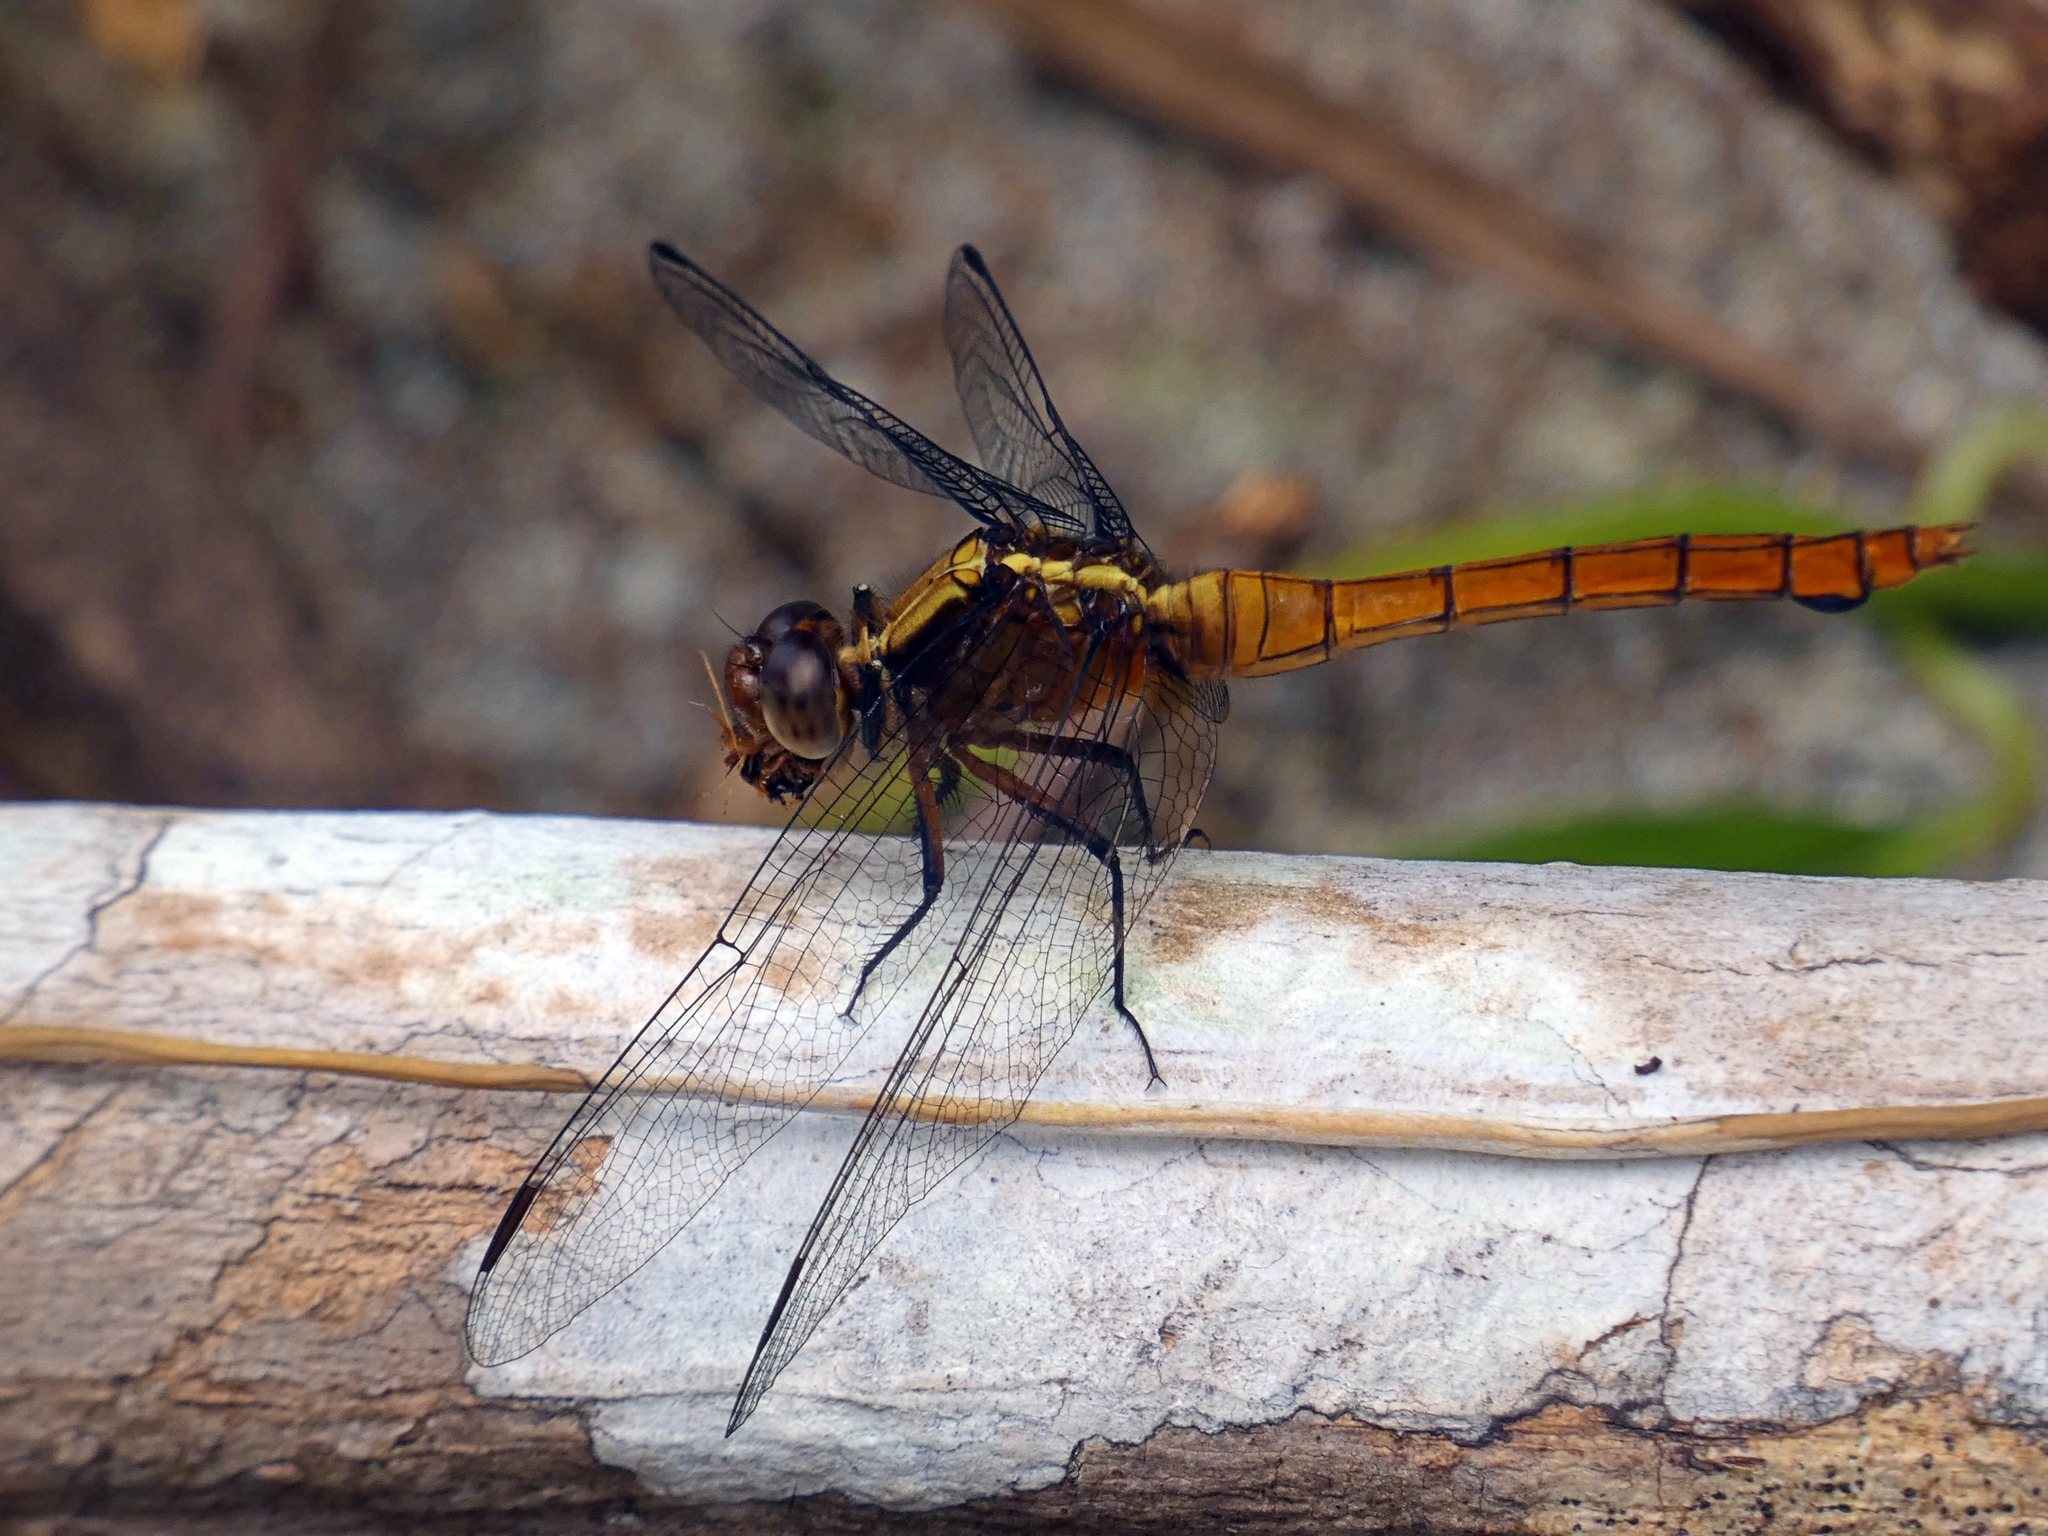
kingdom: Animalia
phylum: Arthropoda
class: Insecta
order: Odonata
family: Libellulidae
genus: Orthetrum
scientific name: Orthetrum villosovittatum
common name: Firery skimmer
